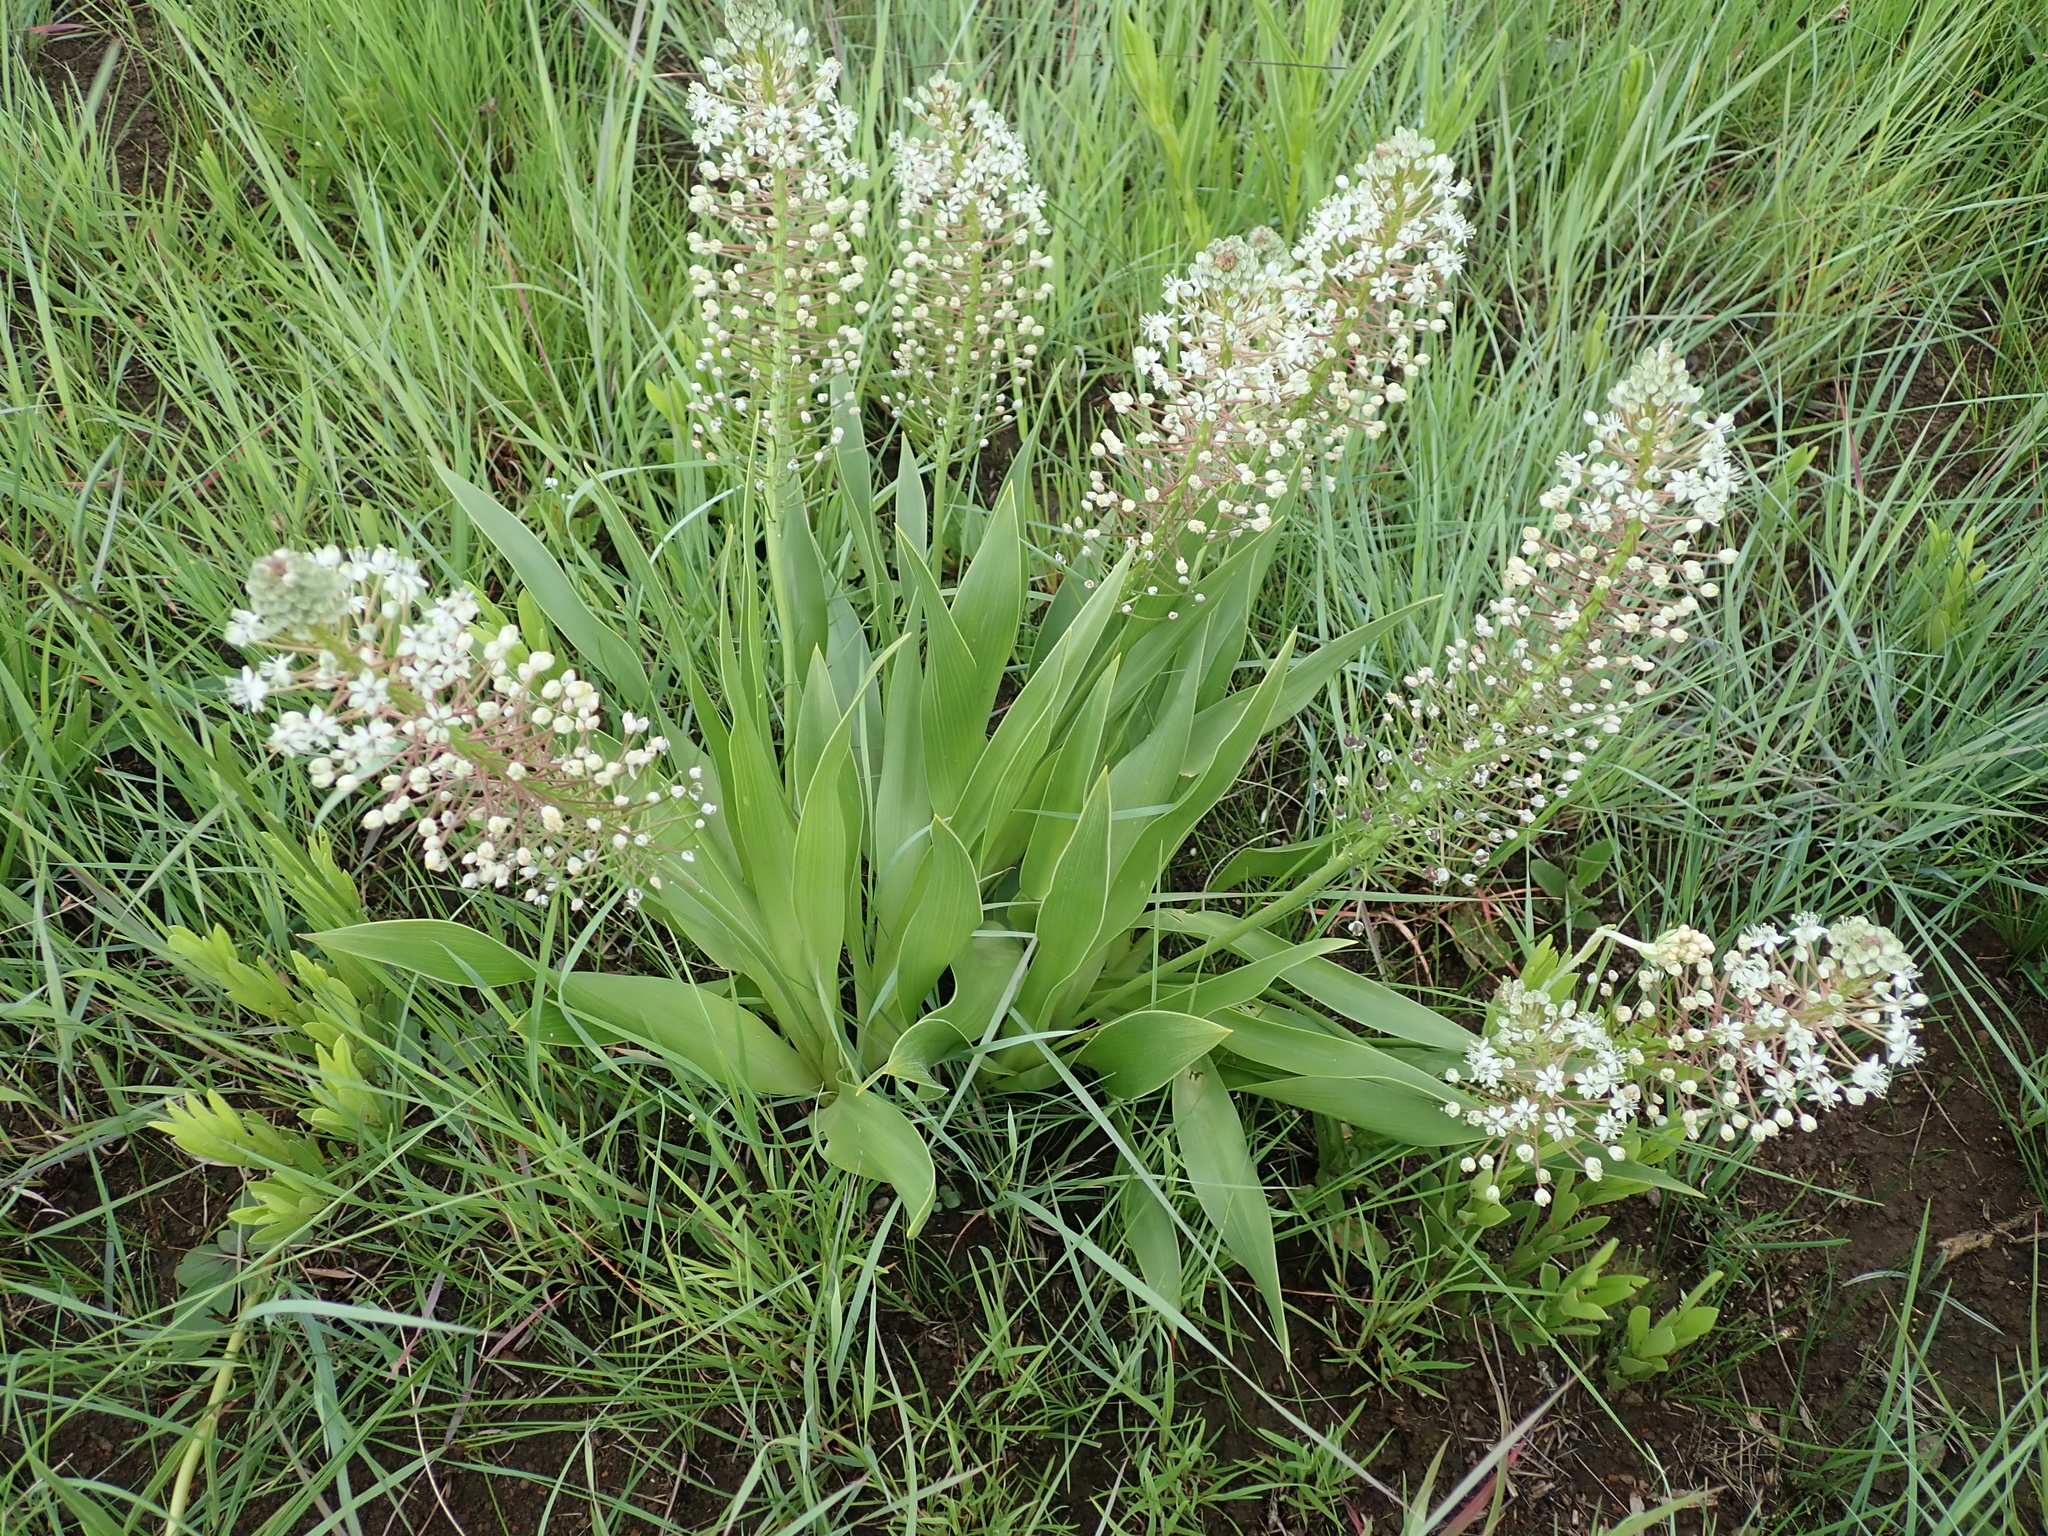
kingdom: Plantae
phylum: Tracheophyta
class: Liliopsida
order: Asparagales
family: Asparagaceae
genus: Schizocarphus
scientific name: Schizocarphus nervosus
